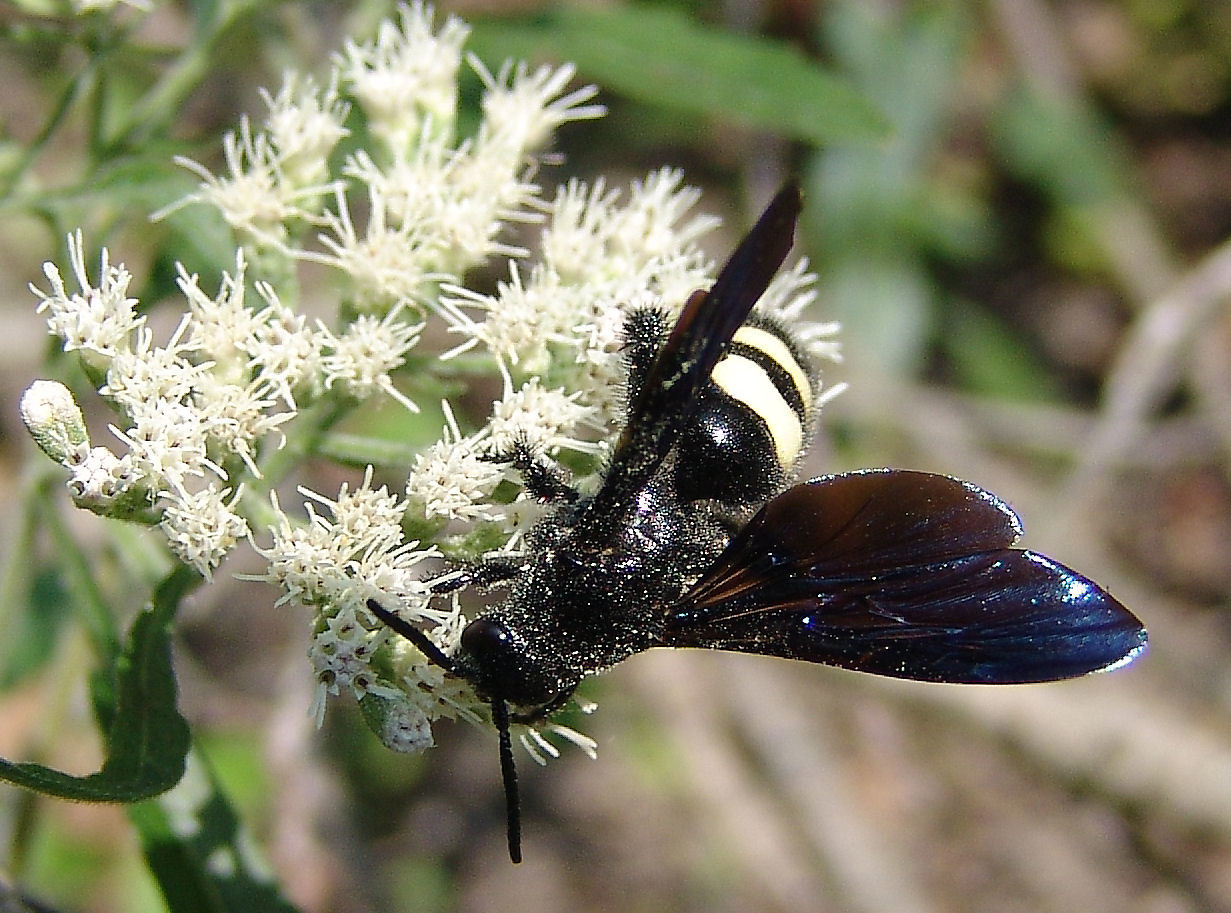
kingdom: Animalia
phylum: Arthropoda
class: Insecta
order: Hymenoptera
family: Scoliidae
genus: Scolia
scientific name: Scolia bicincta
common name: Double-banded scoliid wasp
